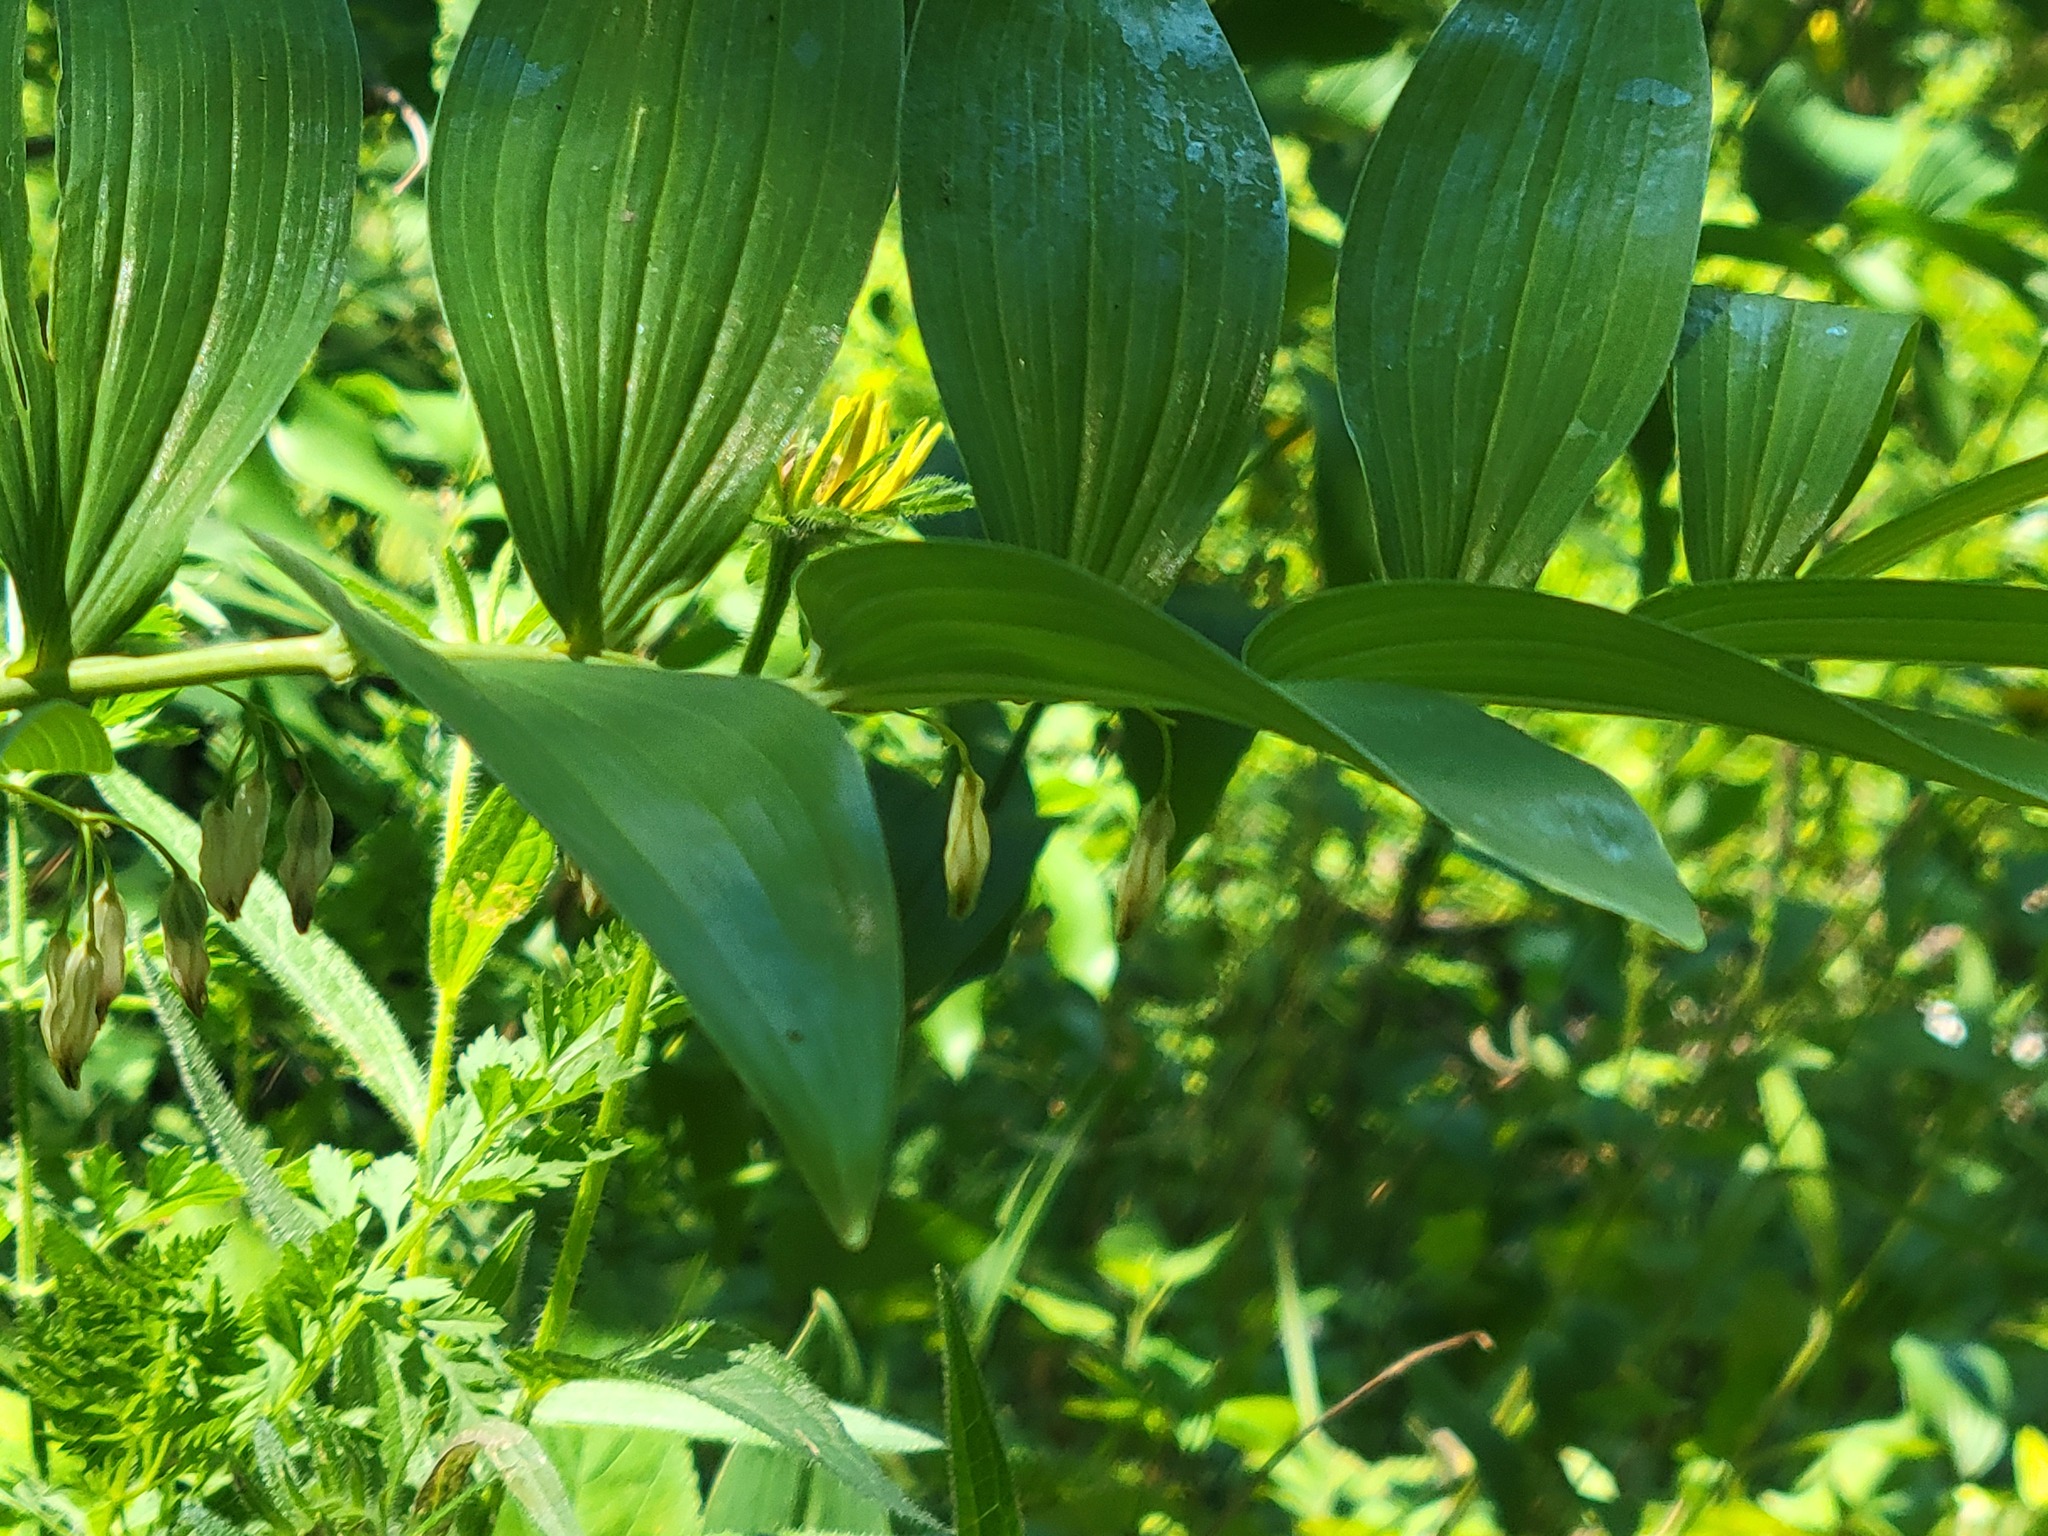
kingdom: Plantae
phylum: Tracheophyta
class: Liliopsida
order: Asparagales
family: Asparagaceae
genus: Polygonatum
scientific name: Polygonatum biflorum
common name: American solomon's-seal
